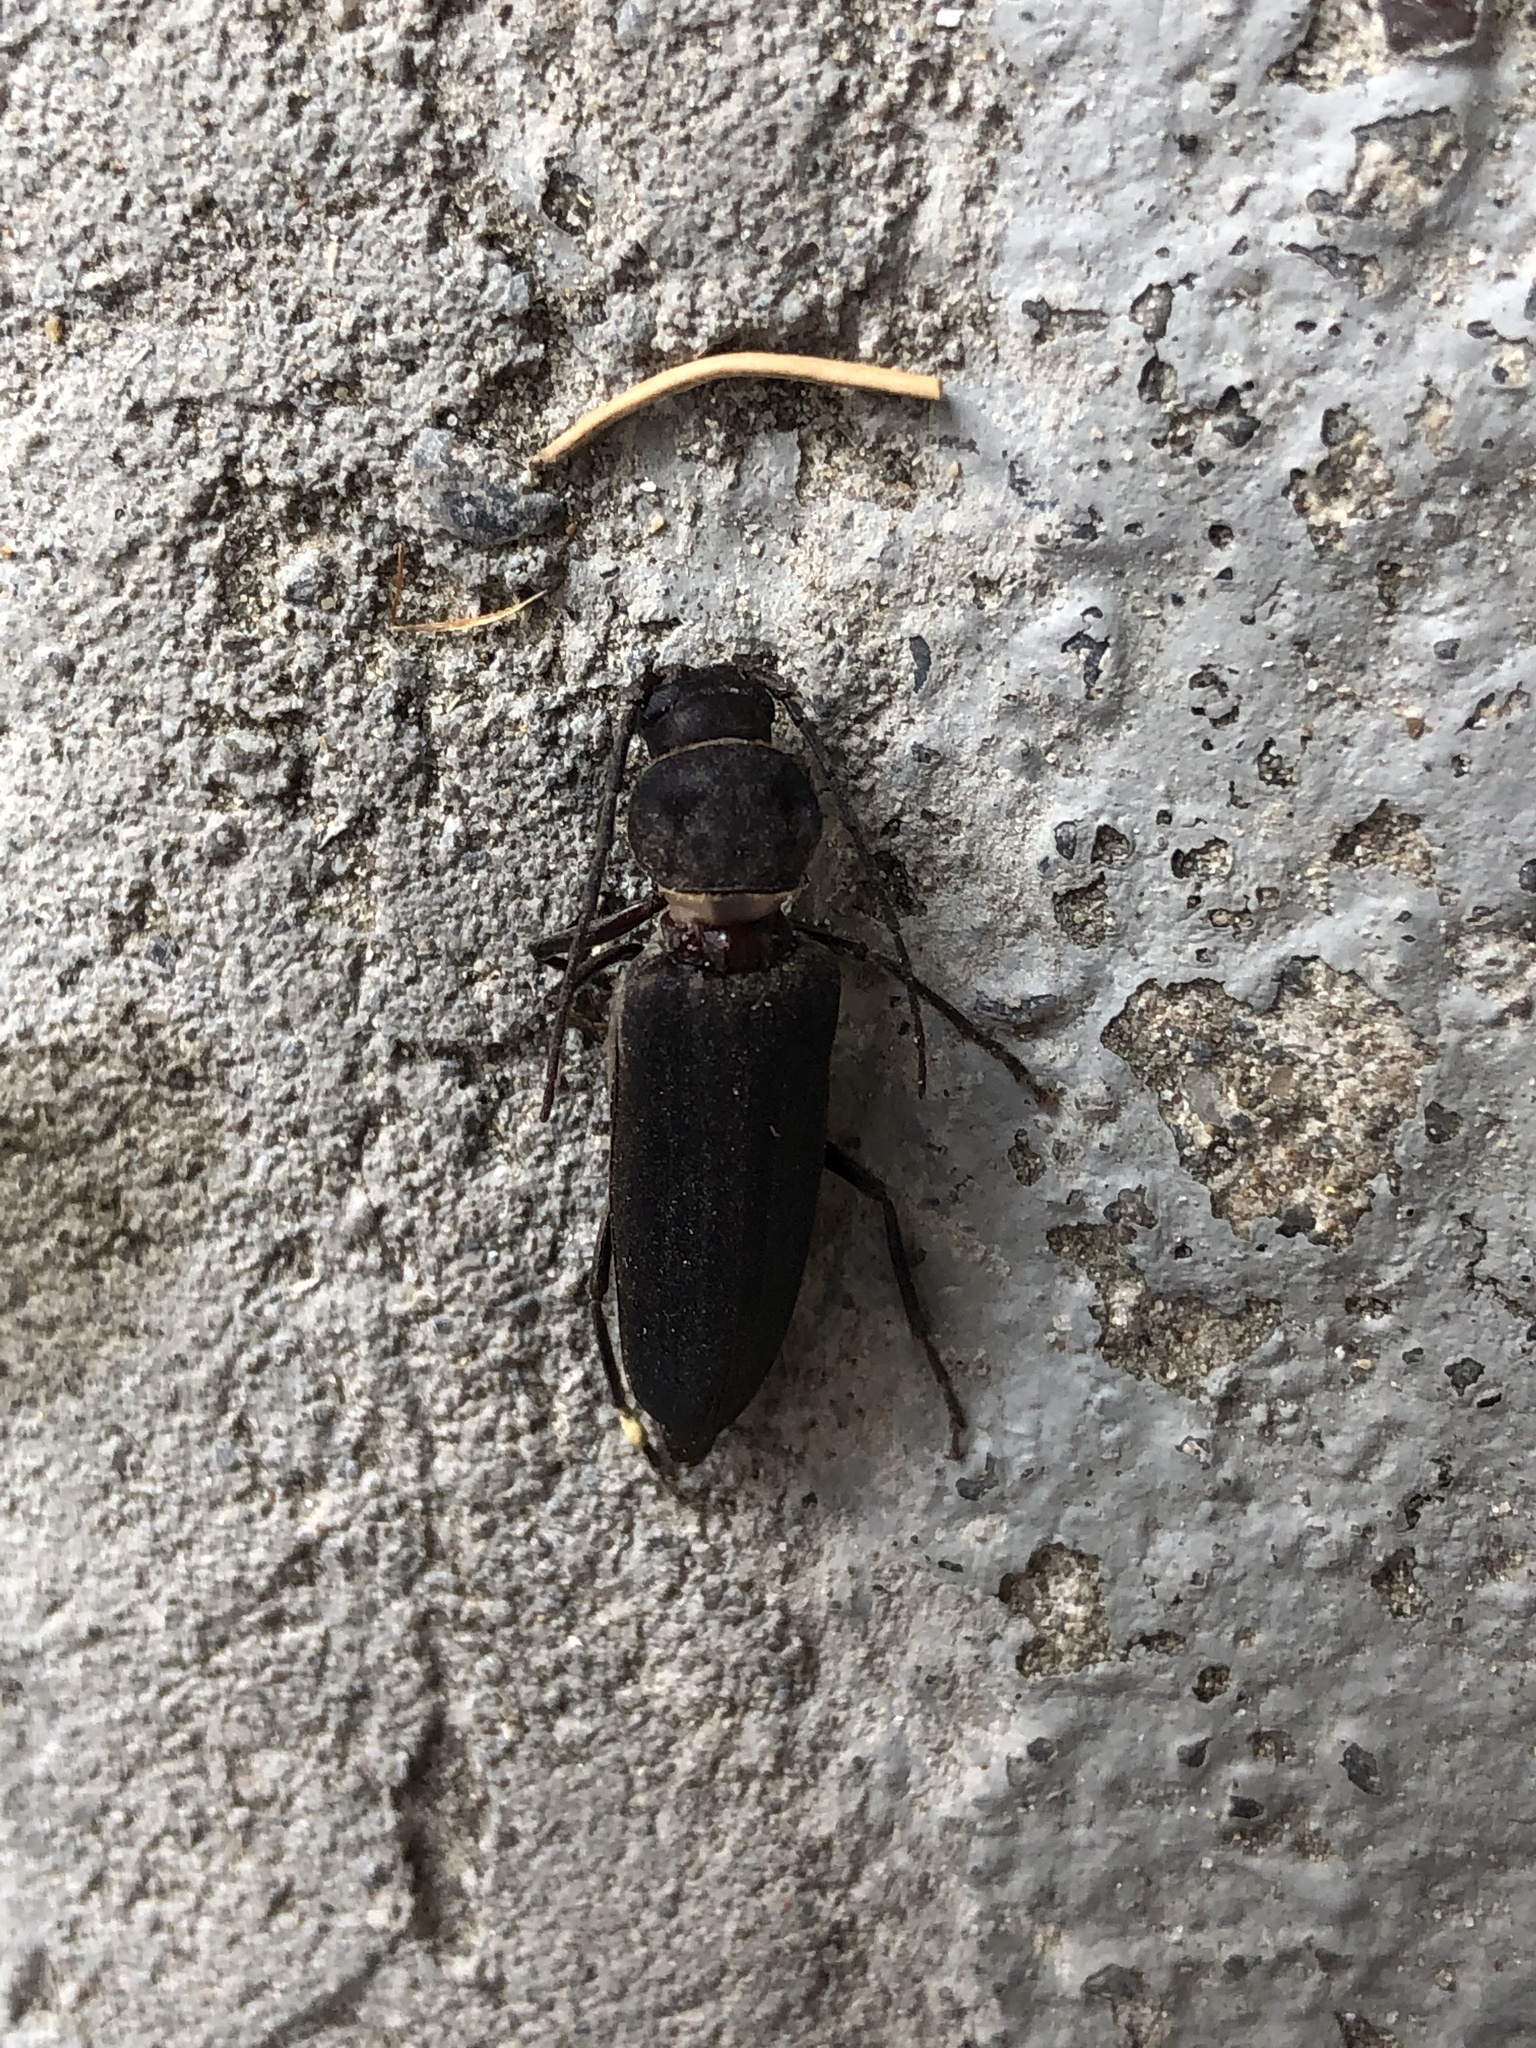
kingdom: Animalia
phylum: Arthropoda
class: Insecta
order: Coleoptera
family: Cerambycidae
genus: Arhopalus
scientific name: Arhopalus ferus
